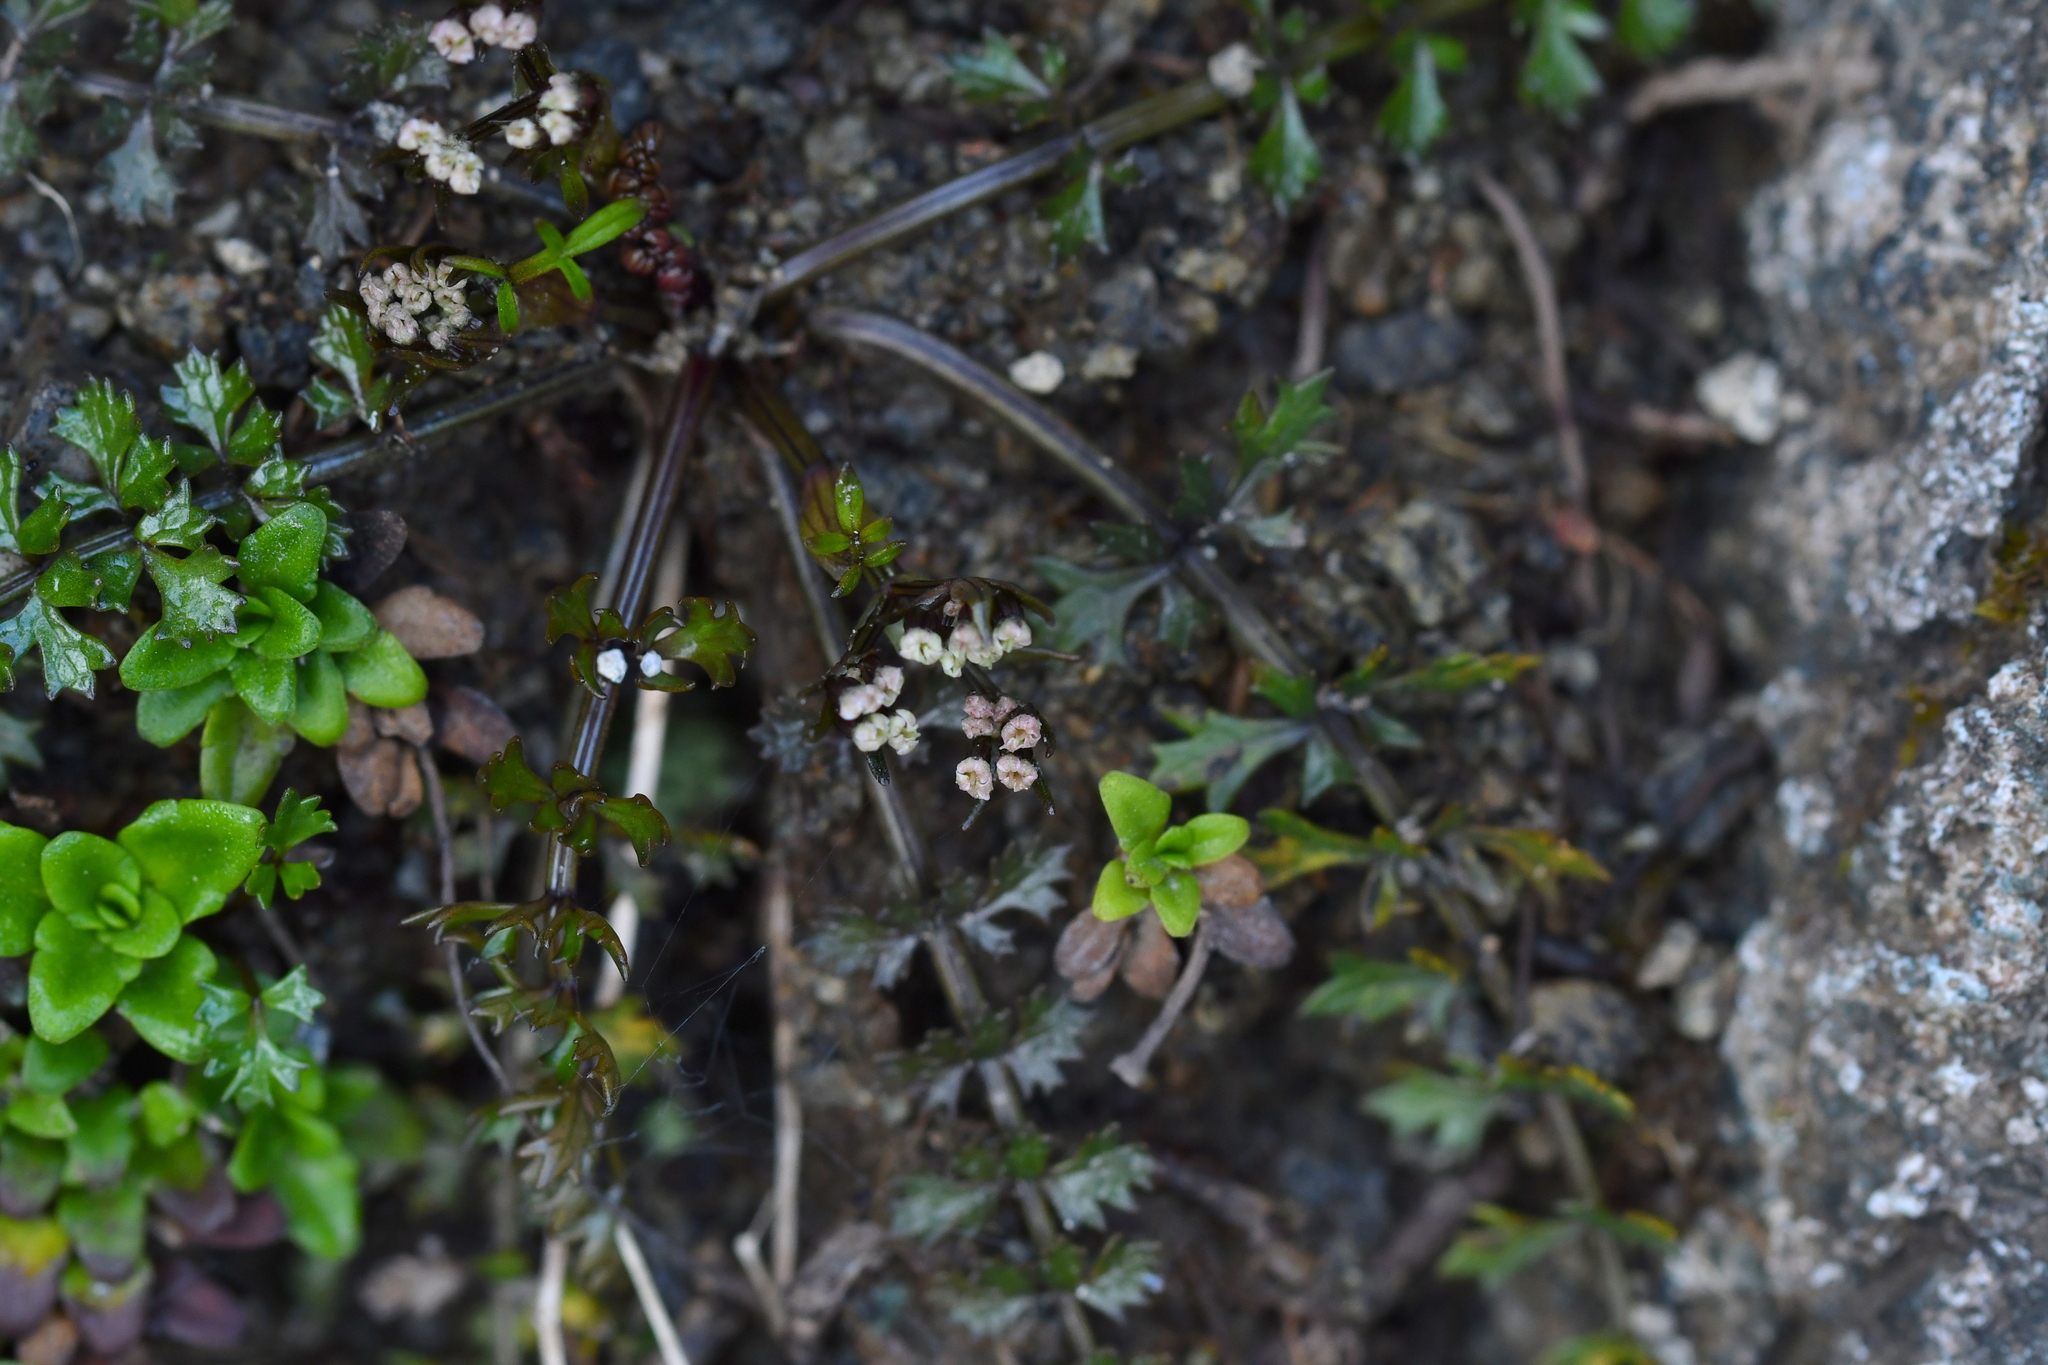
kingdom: Plantae
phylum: Tracheophyta
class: Magnoliopsida
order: Apiales
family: Apiaceae
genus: Gingidia
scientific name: Gingidia decipiens
